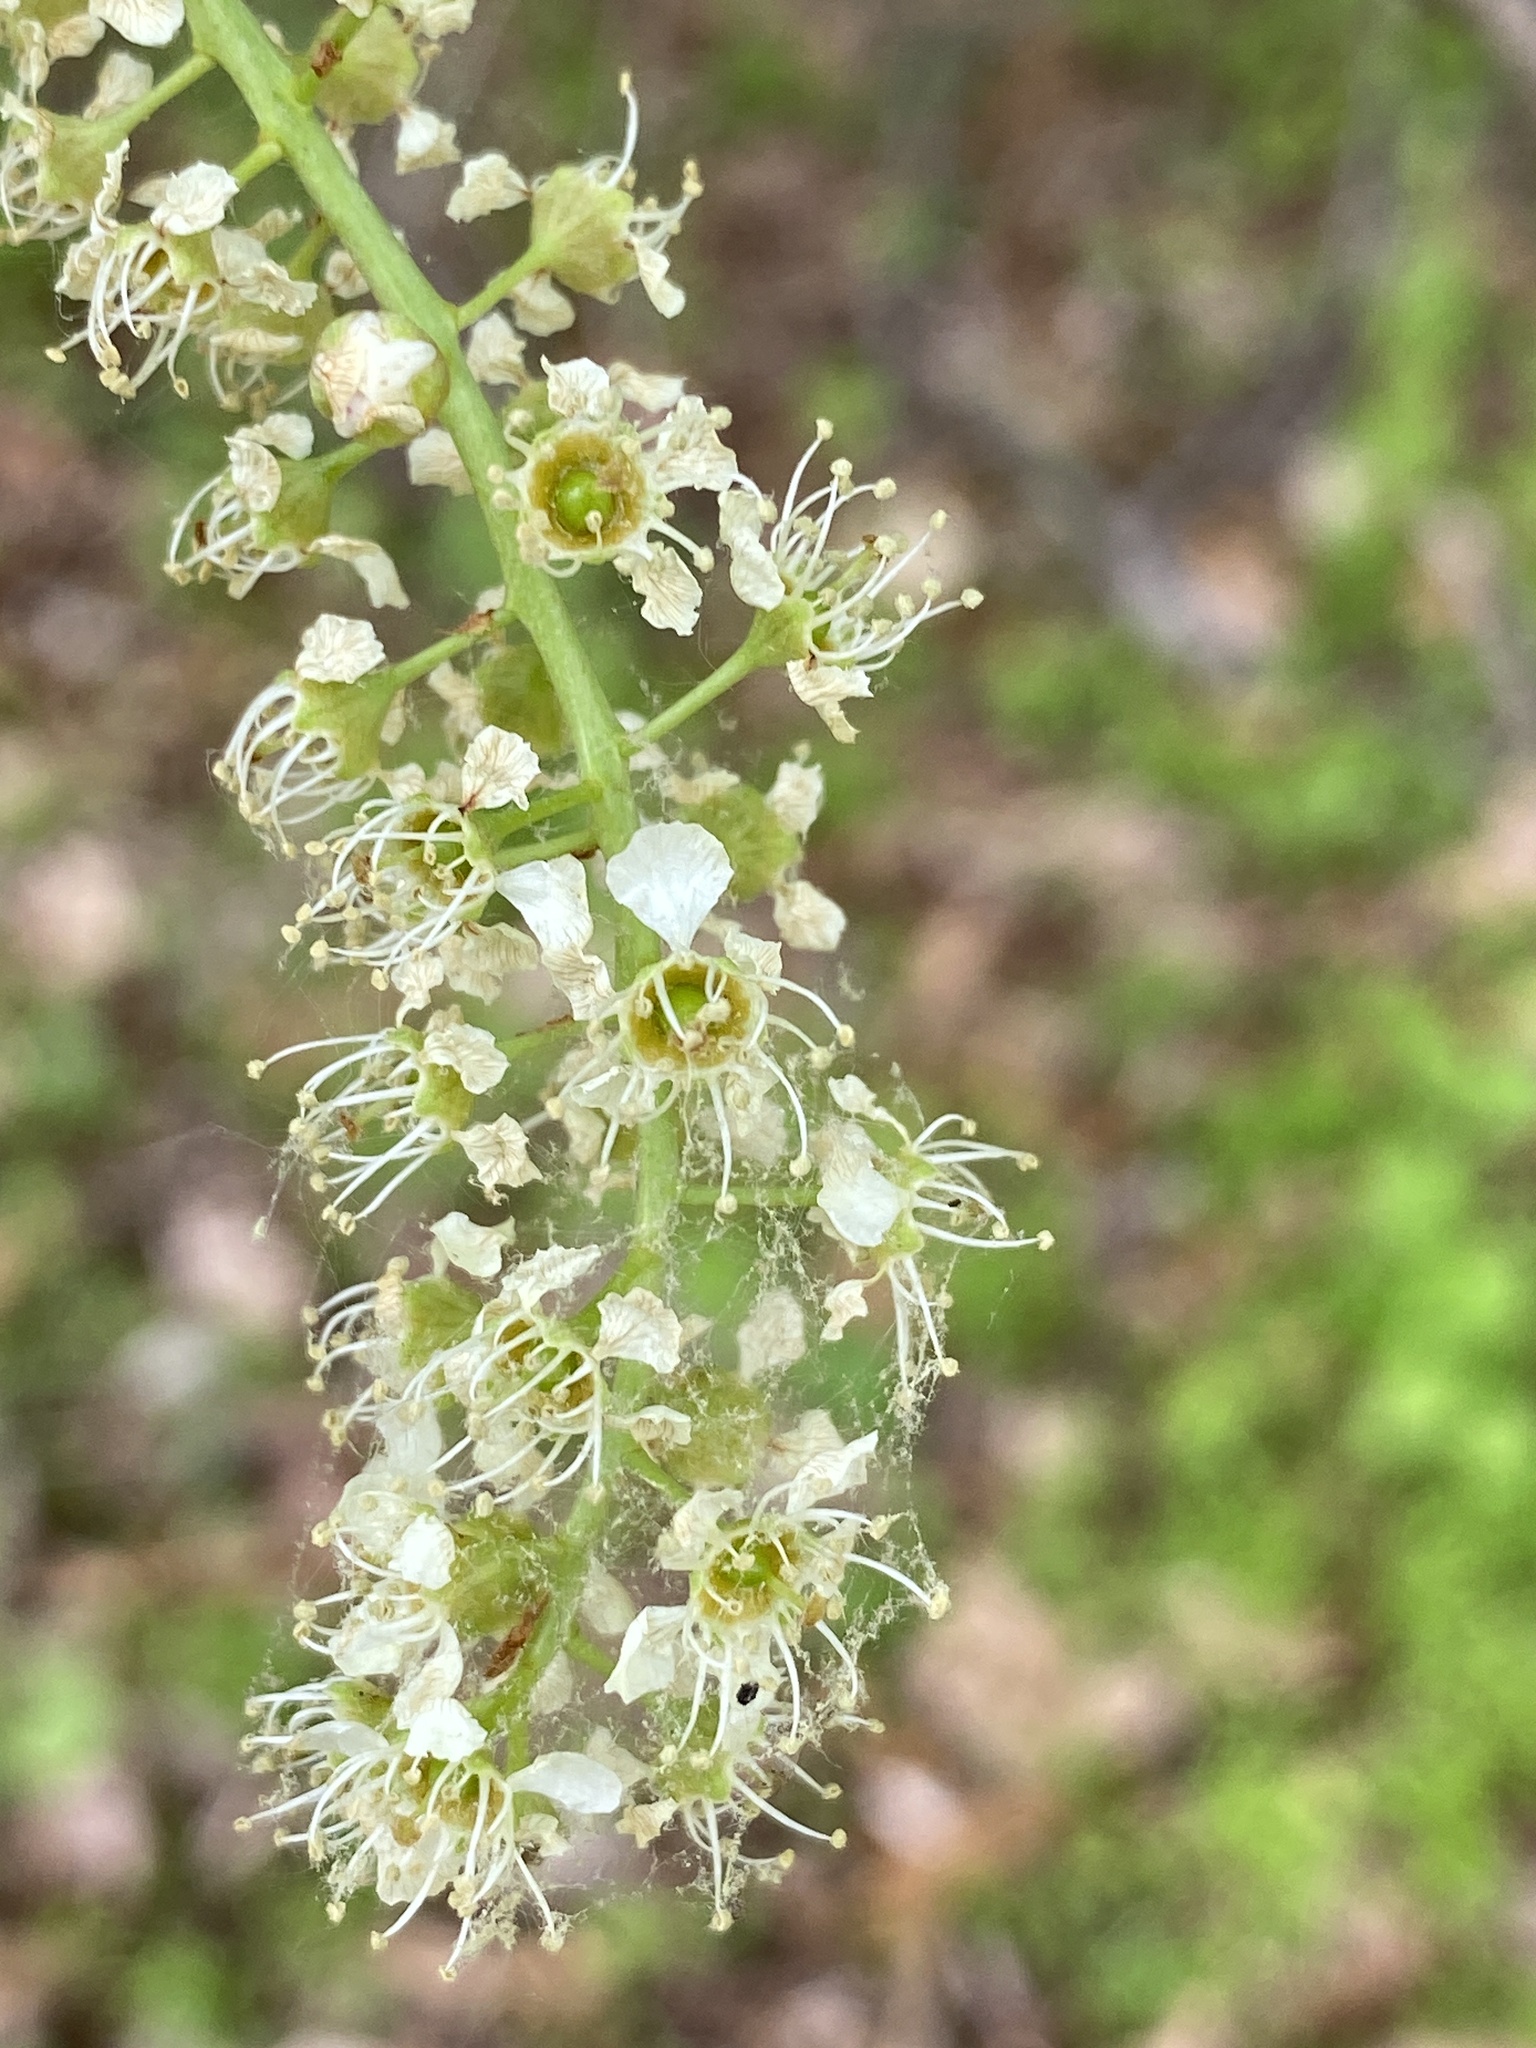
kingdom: Plantae
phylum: Tracheophyta
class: Magnoliopsida
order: Rosales
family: Rosaceae
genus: Prunus
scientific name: Prunus serotina
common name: Black cherry
